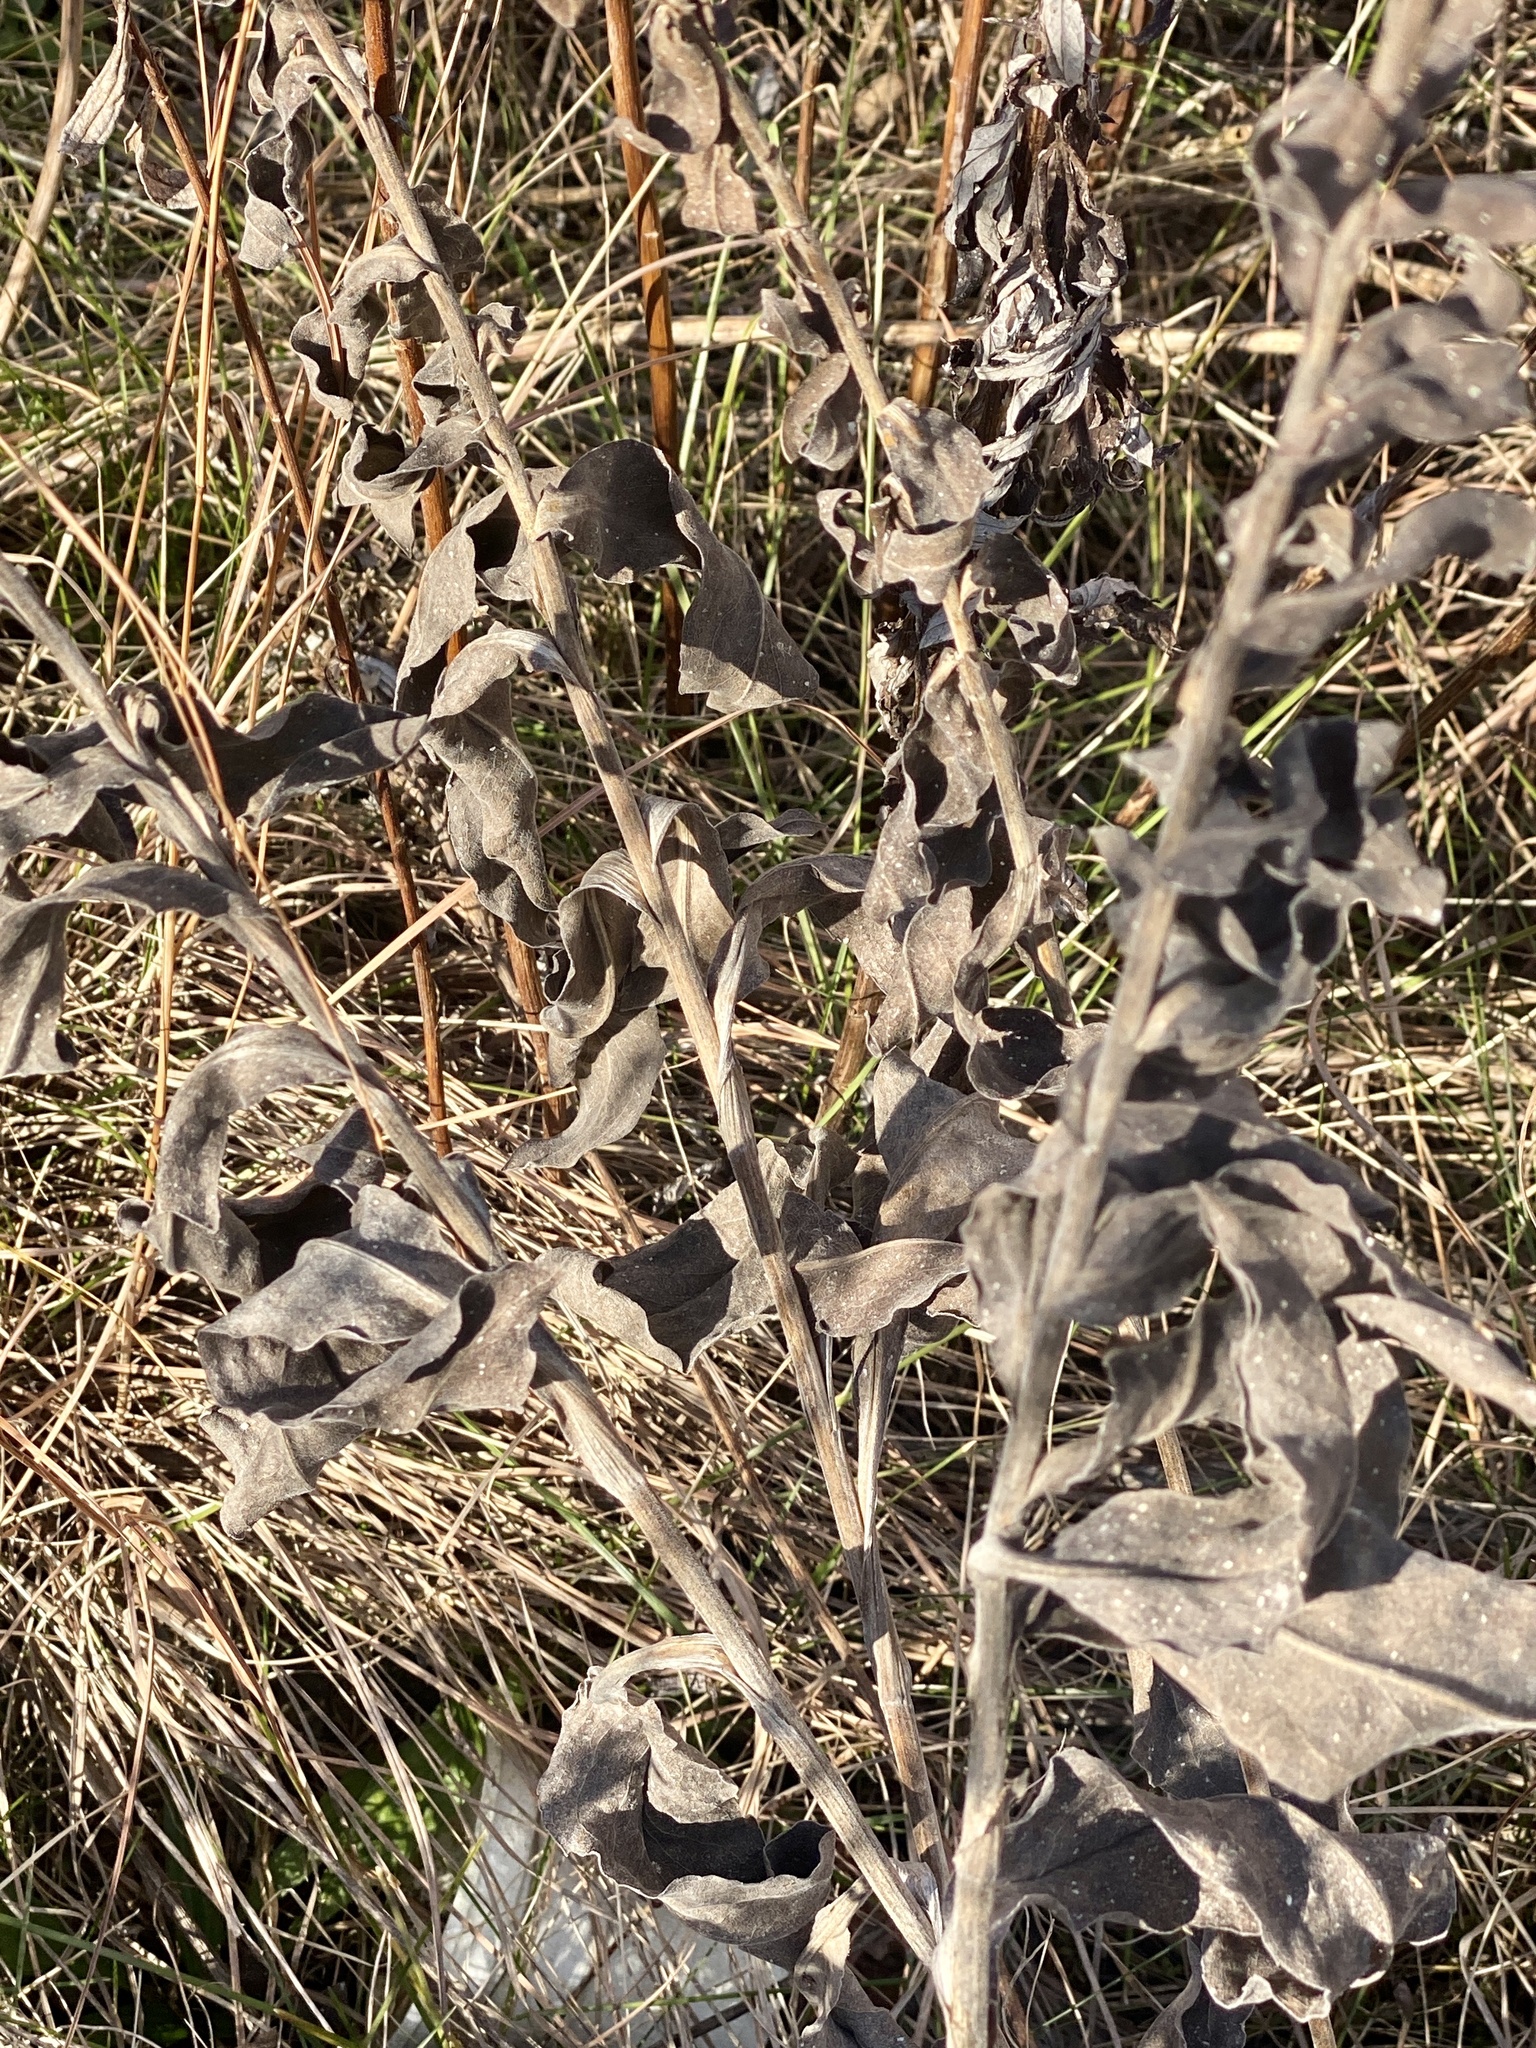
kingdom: Plantae
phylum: Tracheophyta
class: Magnoliopsida
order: Asterales
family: Asteraceae
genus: Solidago
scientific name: Solidago rigida
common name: Rigid goldenrod
